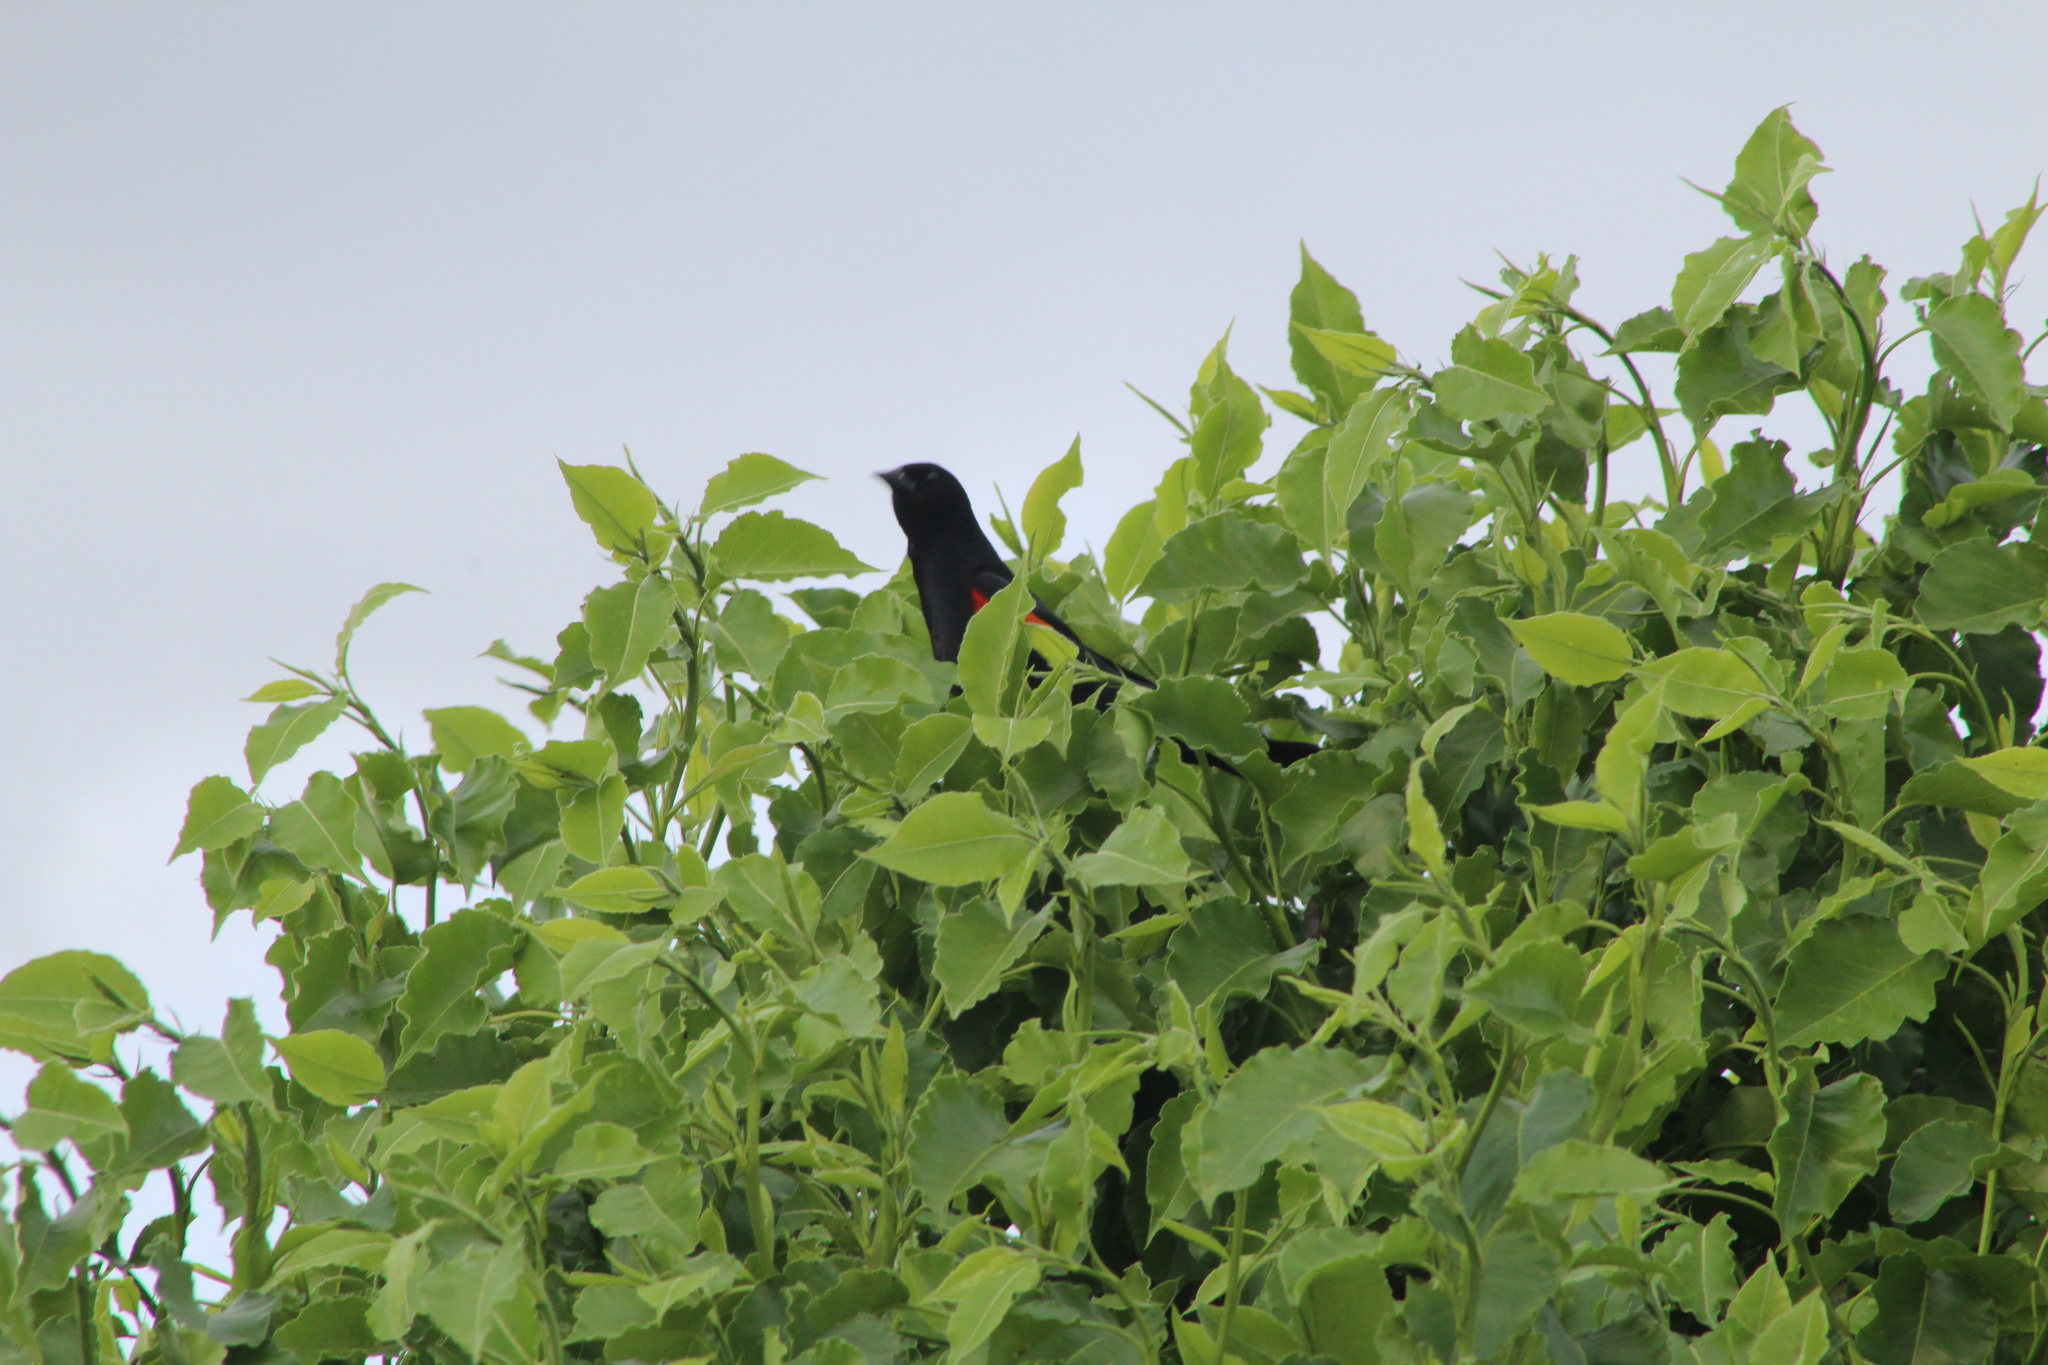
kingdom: Animalia
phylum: Chordata
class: Aves
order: Passeriformes
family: Icteridae
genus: Agelaius
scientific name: Agelaius phoeniceus
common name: Red-winged blackbird
